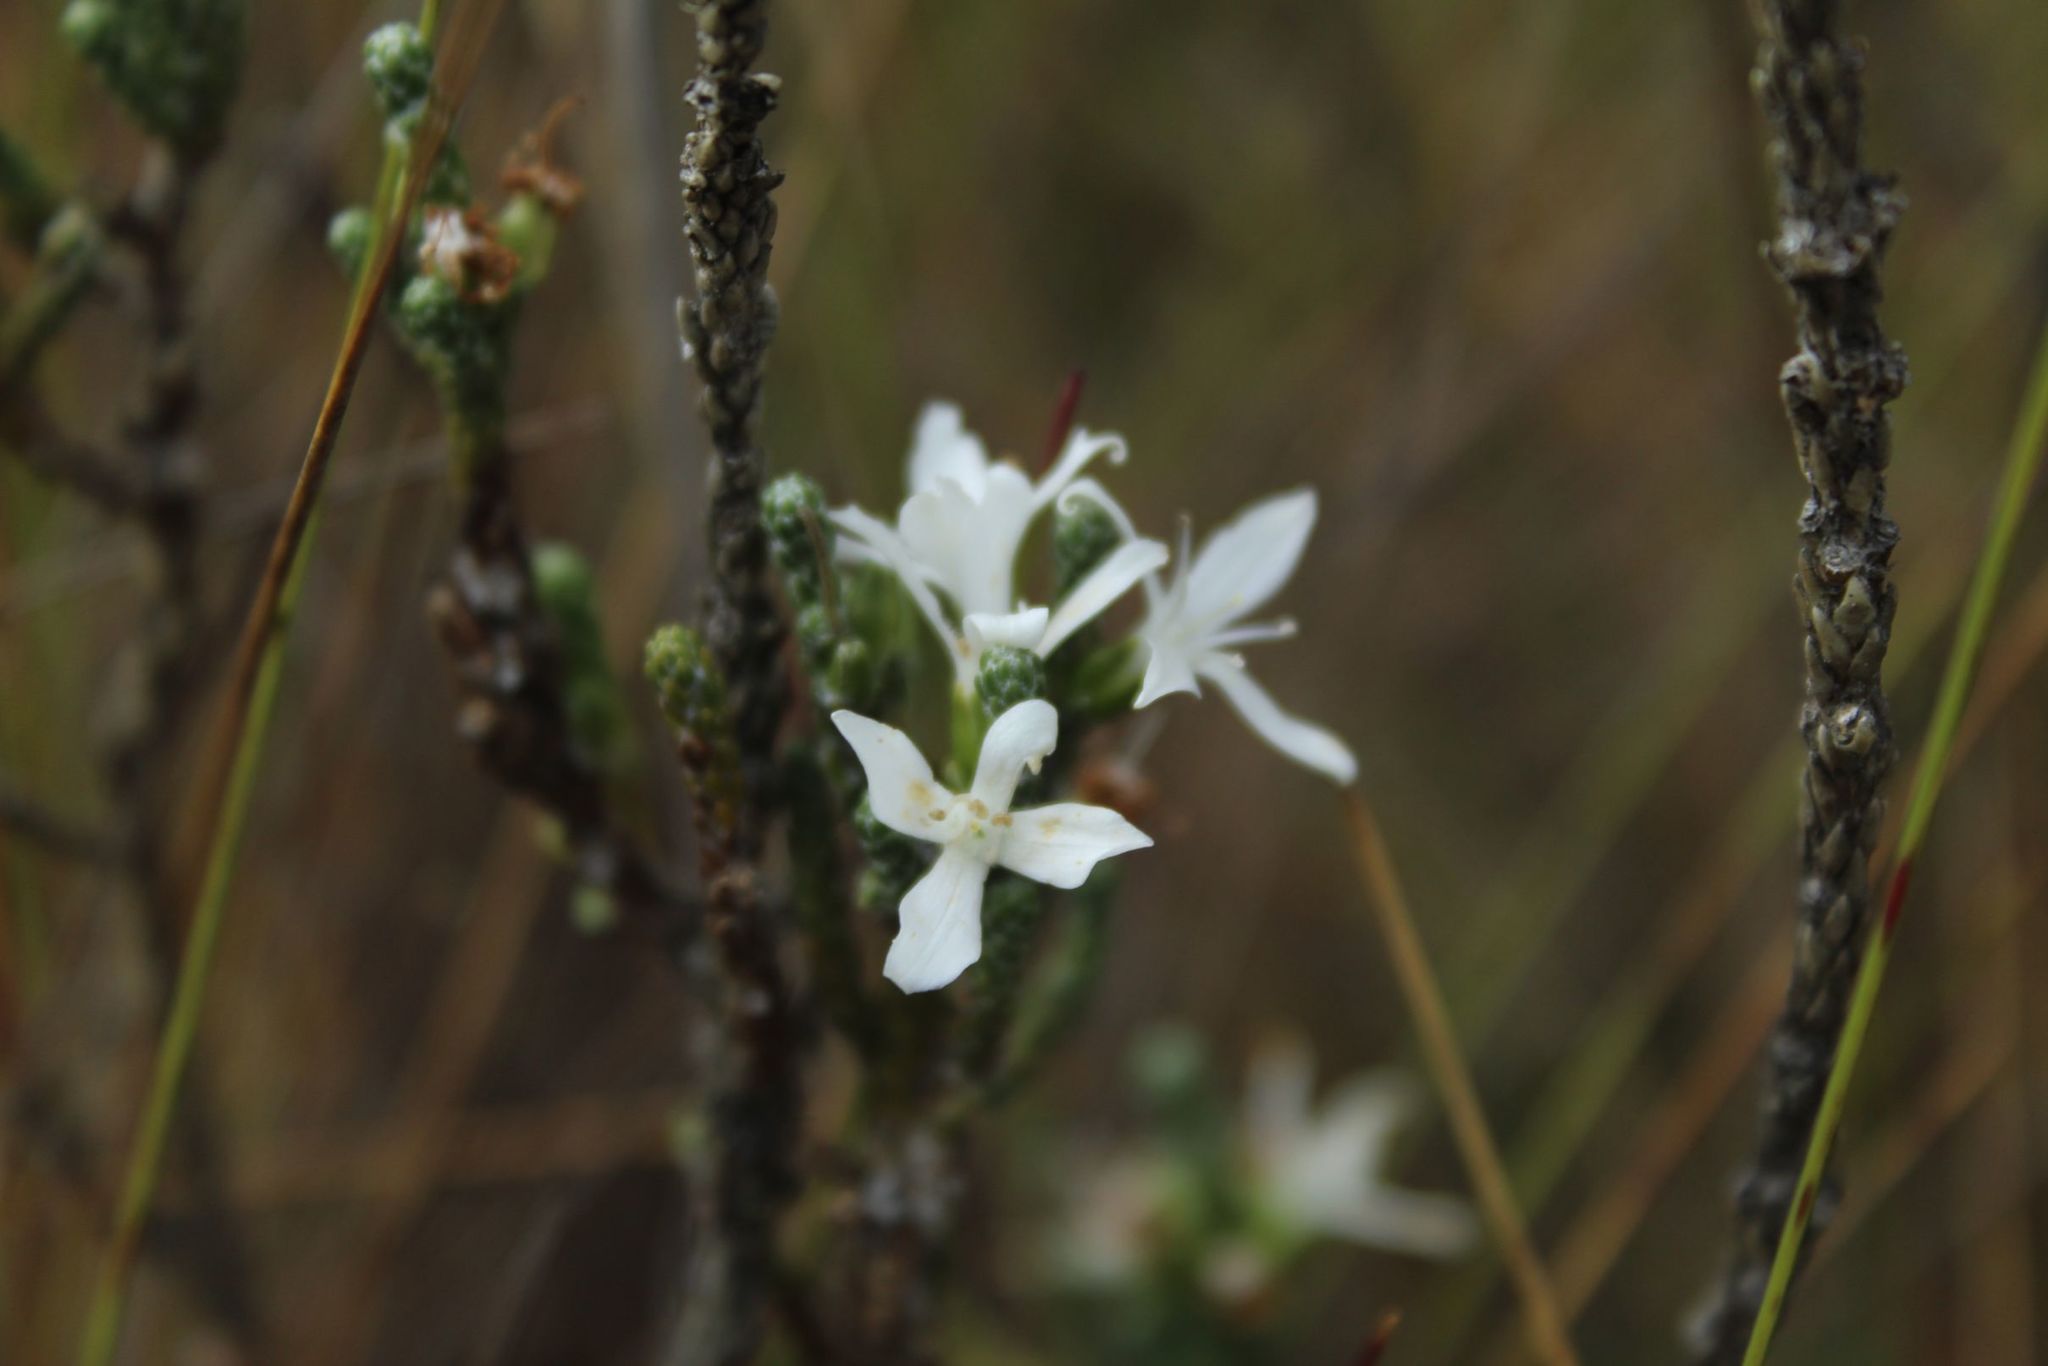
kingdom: Plantae
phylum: Tracheophyta
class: Magnoliopsida
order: Lamiales
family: Plantaginaceae
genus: Aragoa
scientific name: Aragoa cupressina
